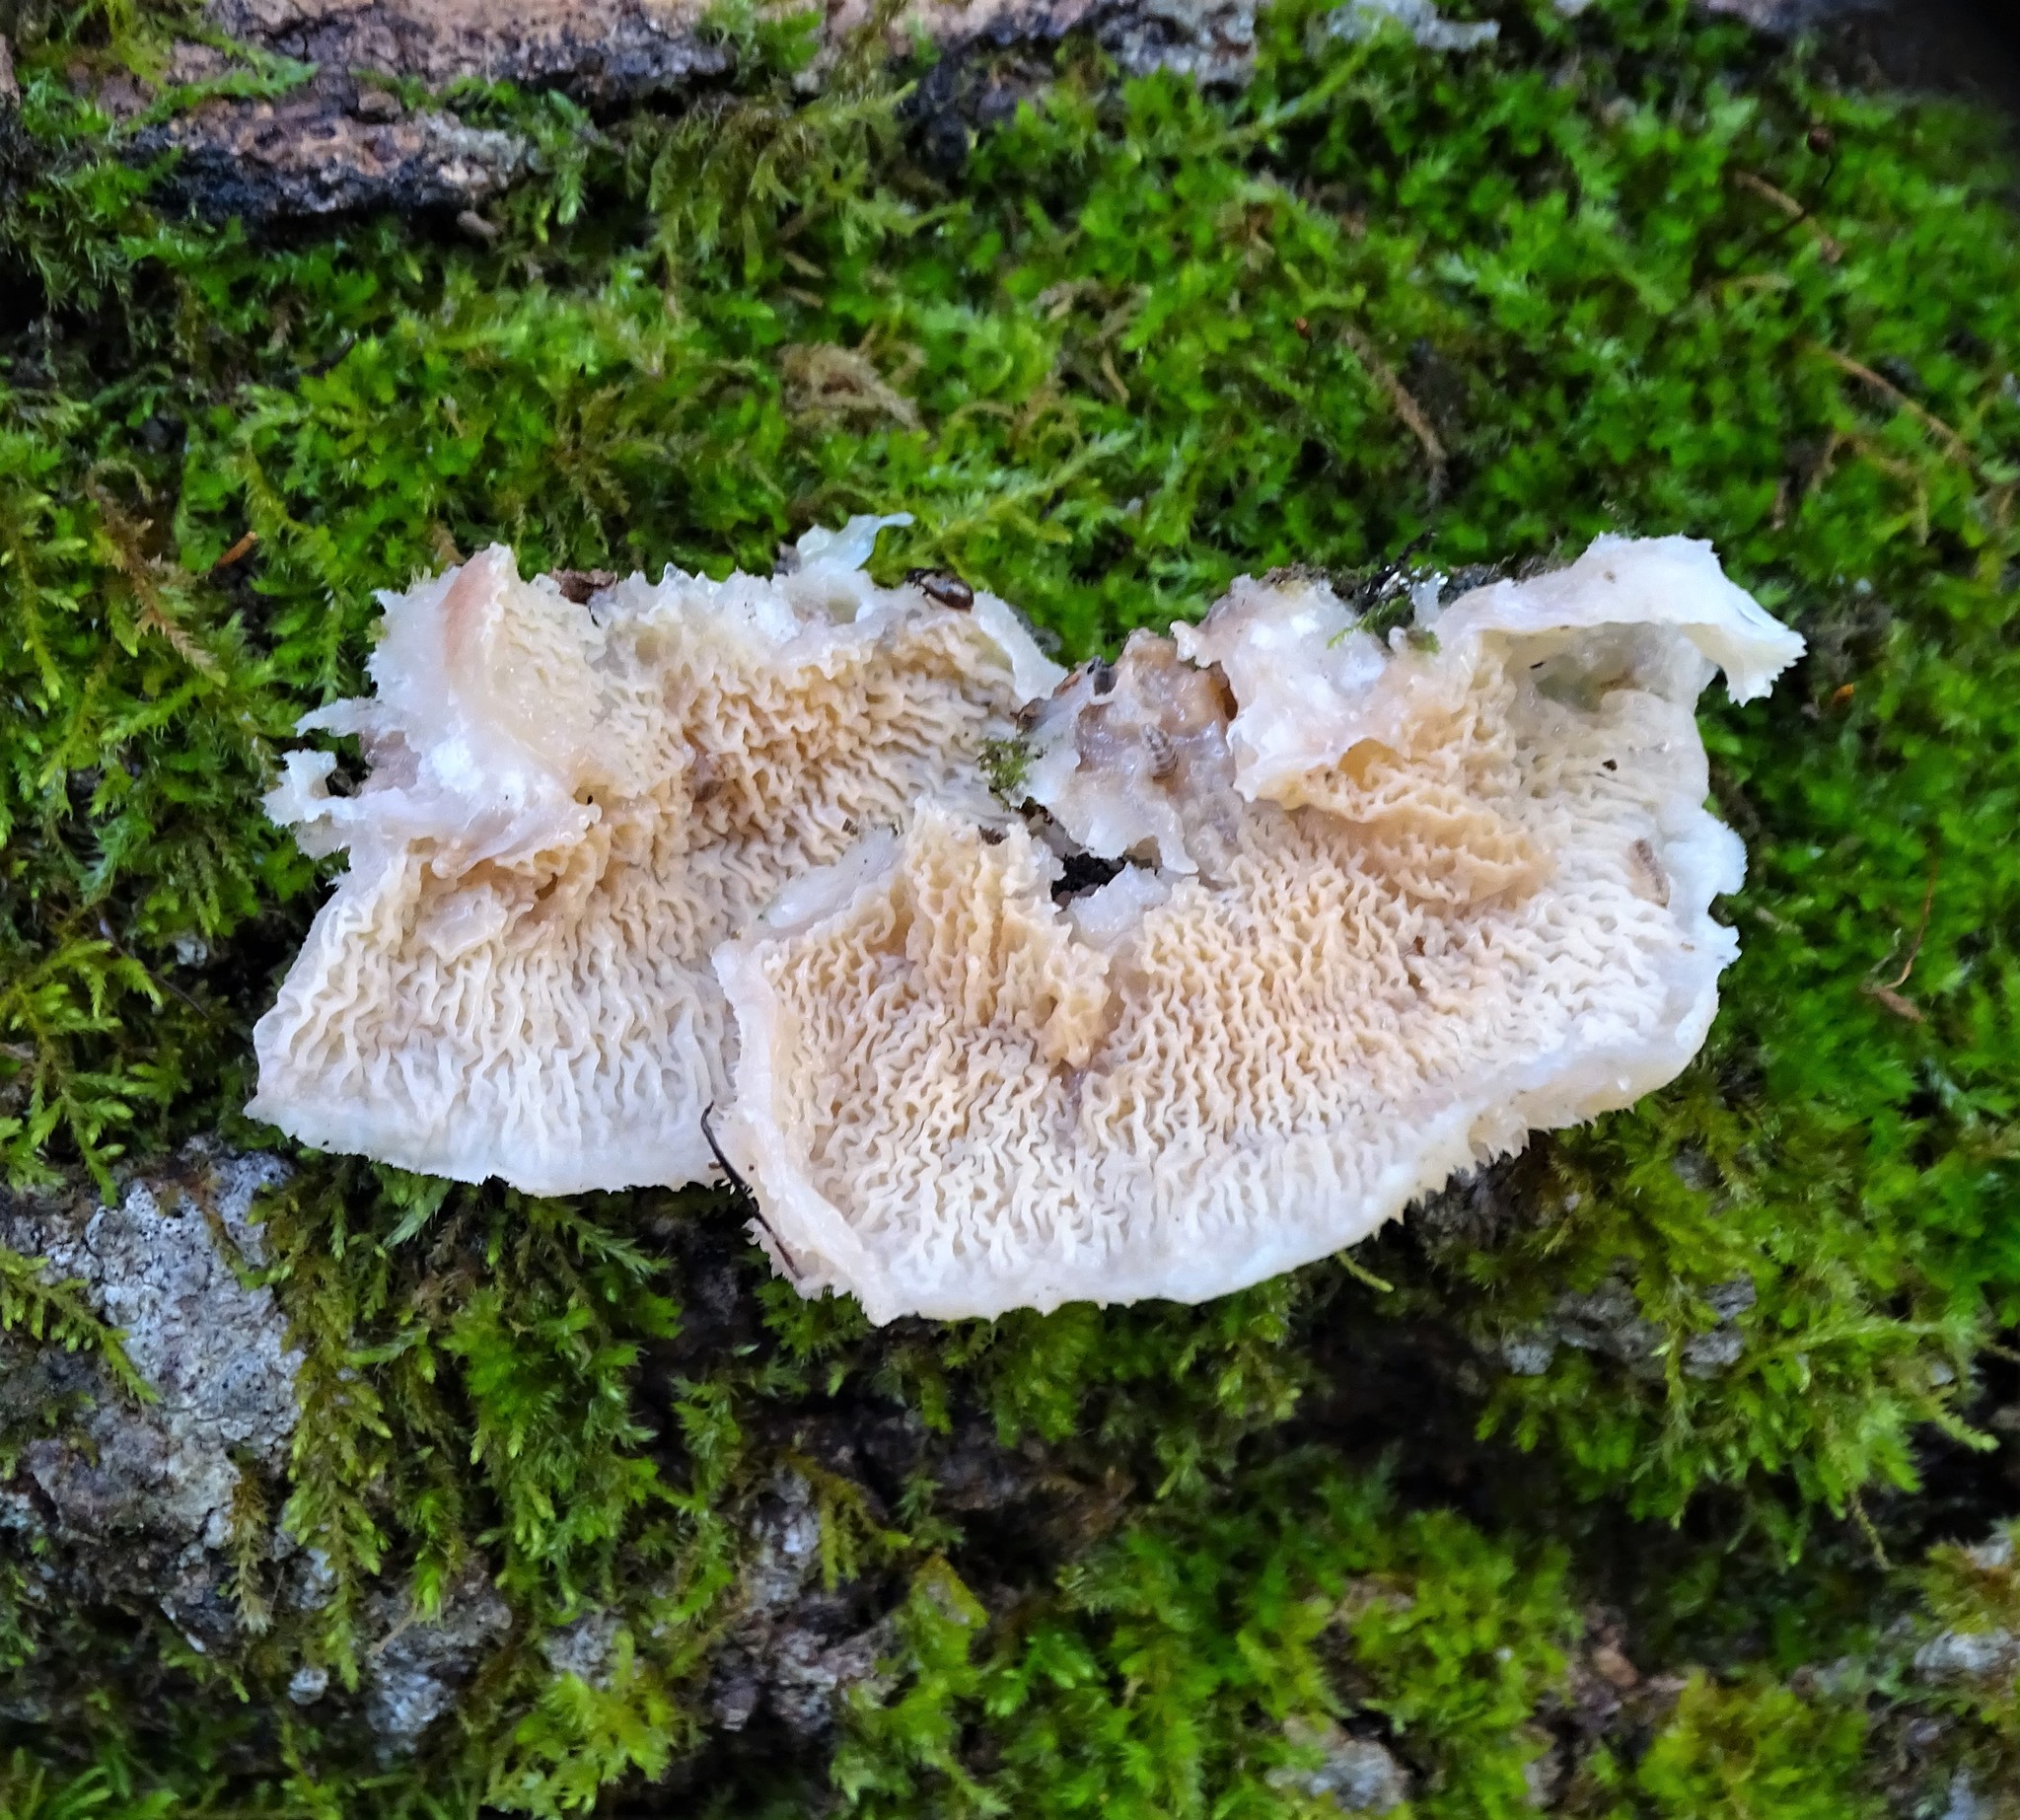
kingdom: Fungi
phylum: Basidiomycota
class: Agaricomycetes
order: Polyporales
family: Meruliaceae
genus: Phlebia
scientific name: Phlebia tremellosa
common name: Jelly rot
